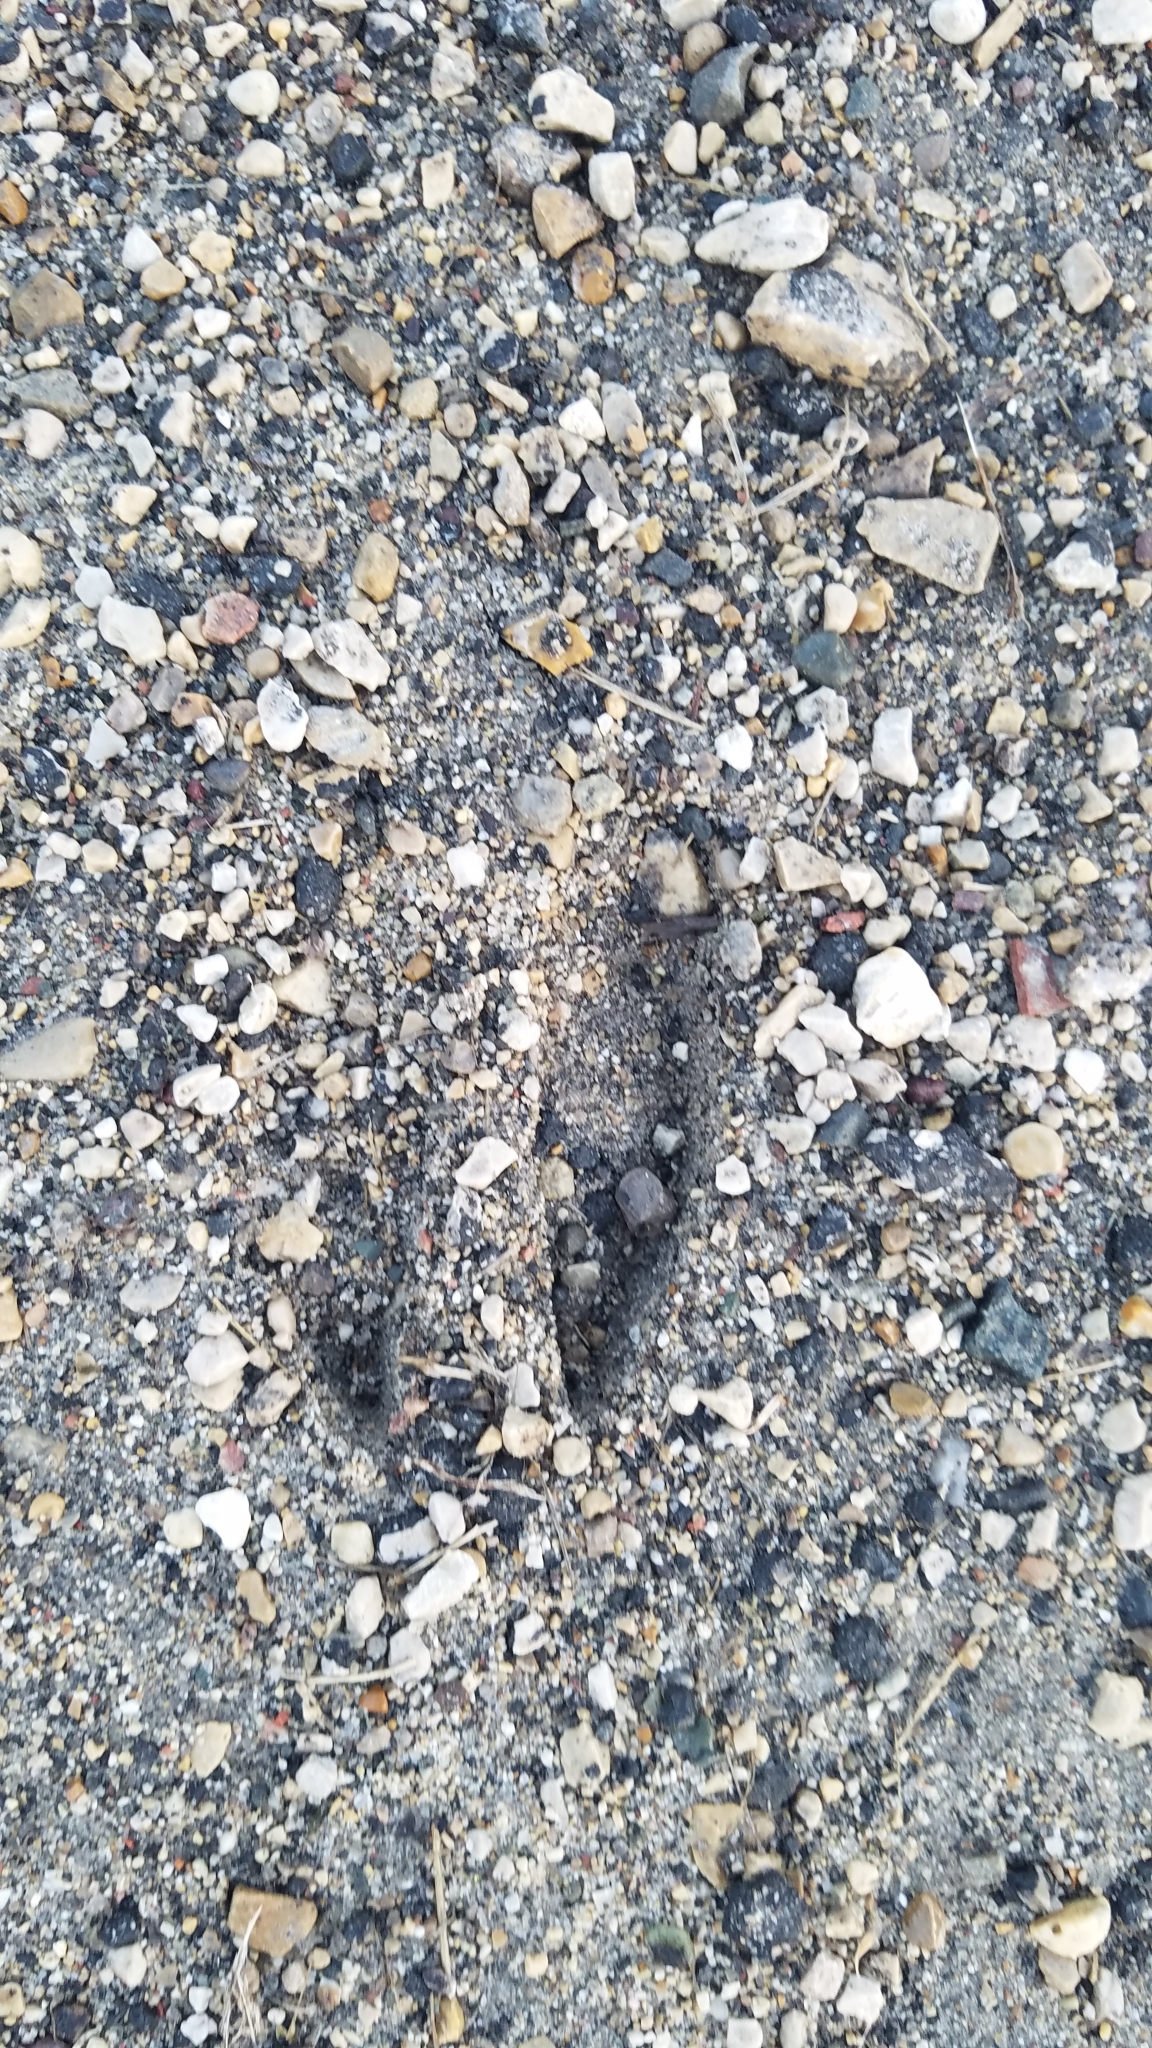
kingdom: Animalia
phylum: Chordata
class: Mammalia
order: Artiodactyla
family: Cervidae
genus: Odocoileus
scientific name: Odocoileus virginianus
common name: White-tailed deer
